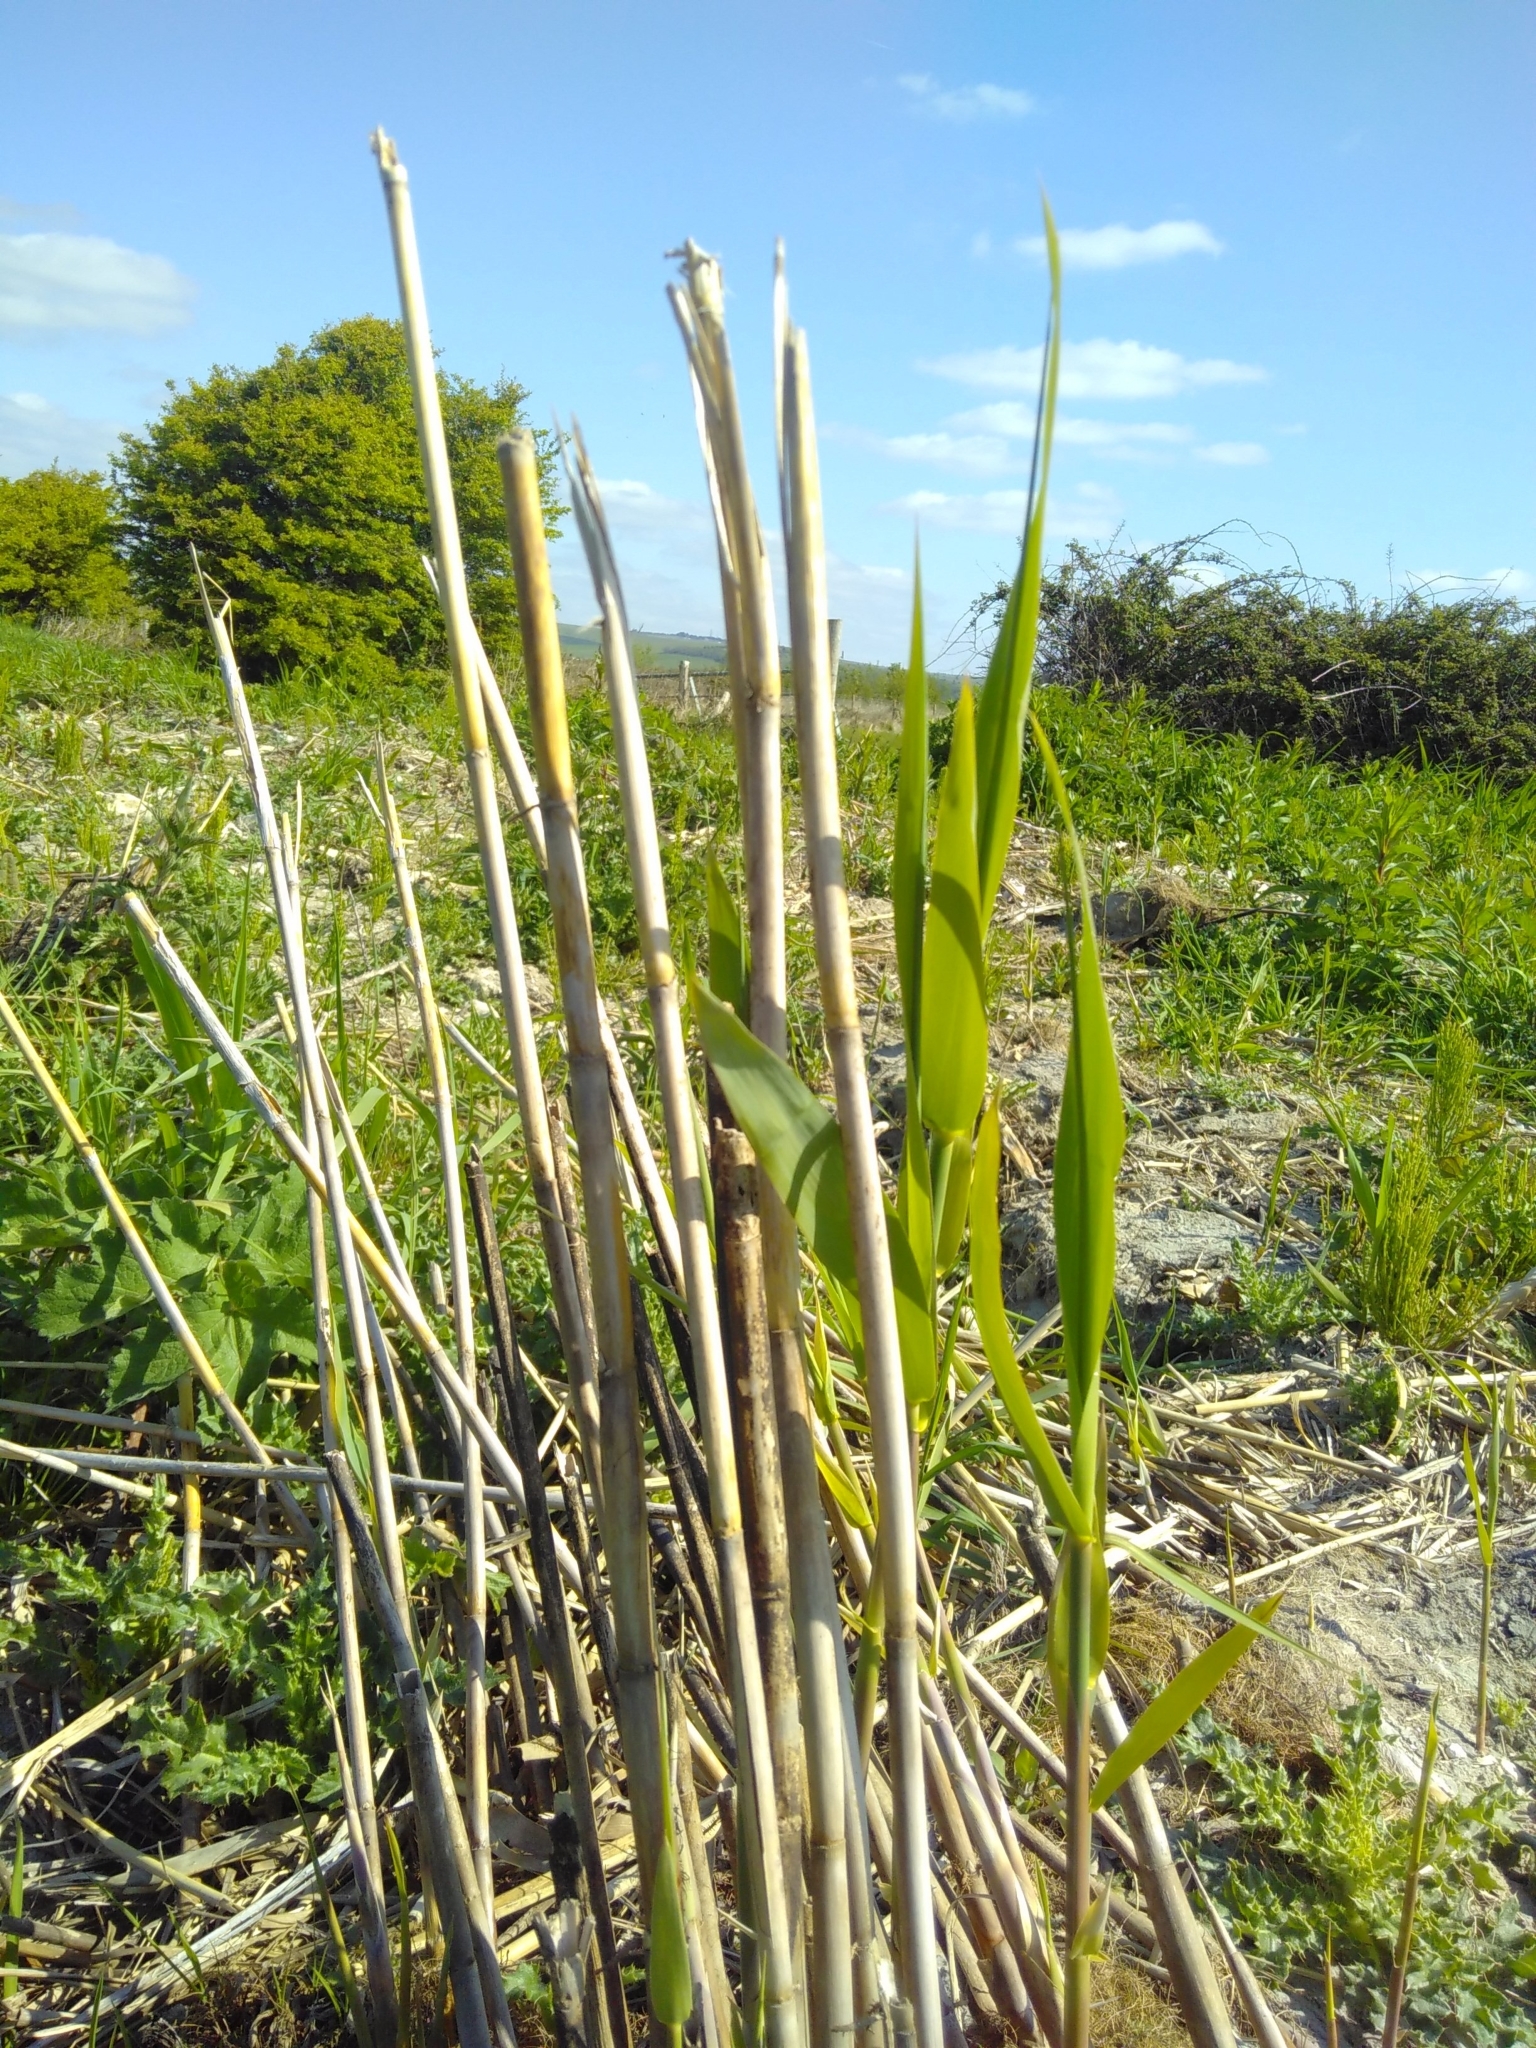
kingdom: Plantae
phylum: Tracheophyta
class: Liliopsida
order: Poales
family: Poaceae
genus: Phragmites
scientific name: Phragmites australis
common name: Common reed
